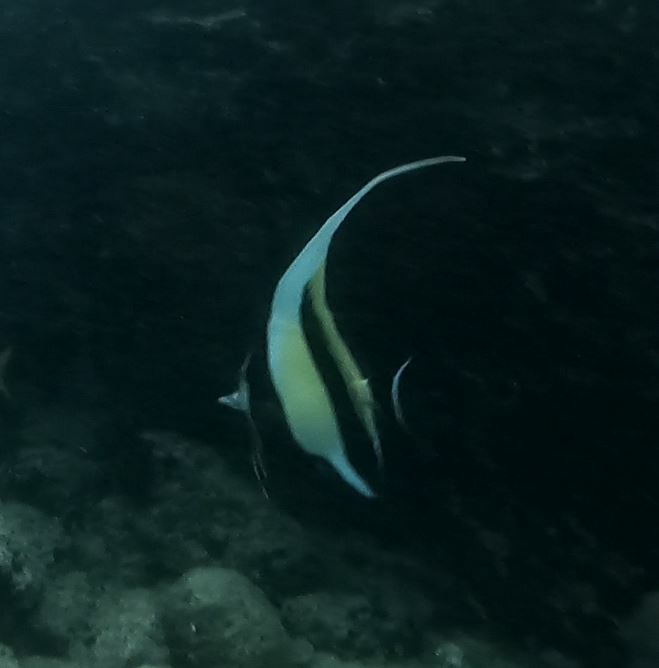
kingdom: Animalia
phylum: Chordata
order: Perciformes
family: Zanclidae
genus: Zanclus
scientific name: Zanclus cornutus
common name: Moorish idol
